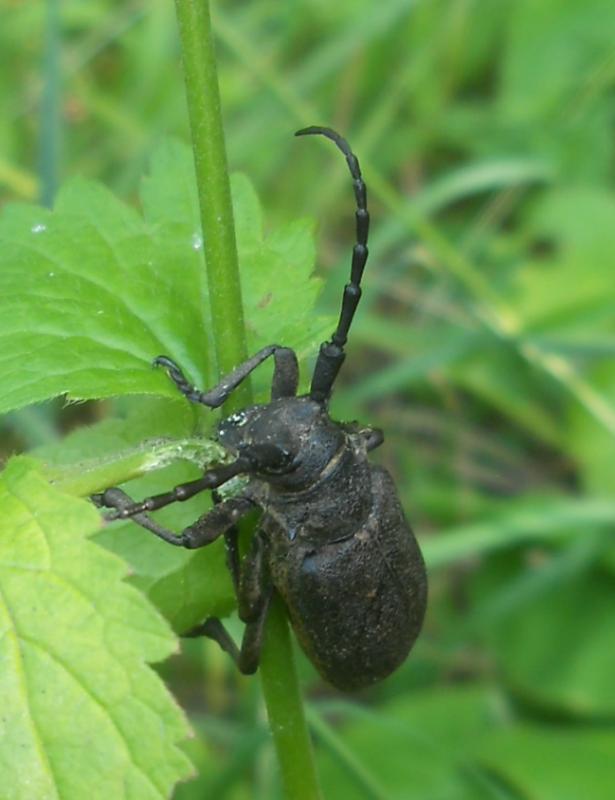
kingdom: Animalia
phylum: Arthropoda
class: Insecta
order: Coleoptera
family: Cerambycidae
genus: Lamia
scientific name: Lamia textor
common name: Weaver beetle
